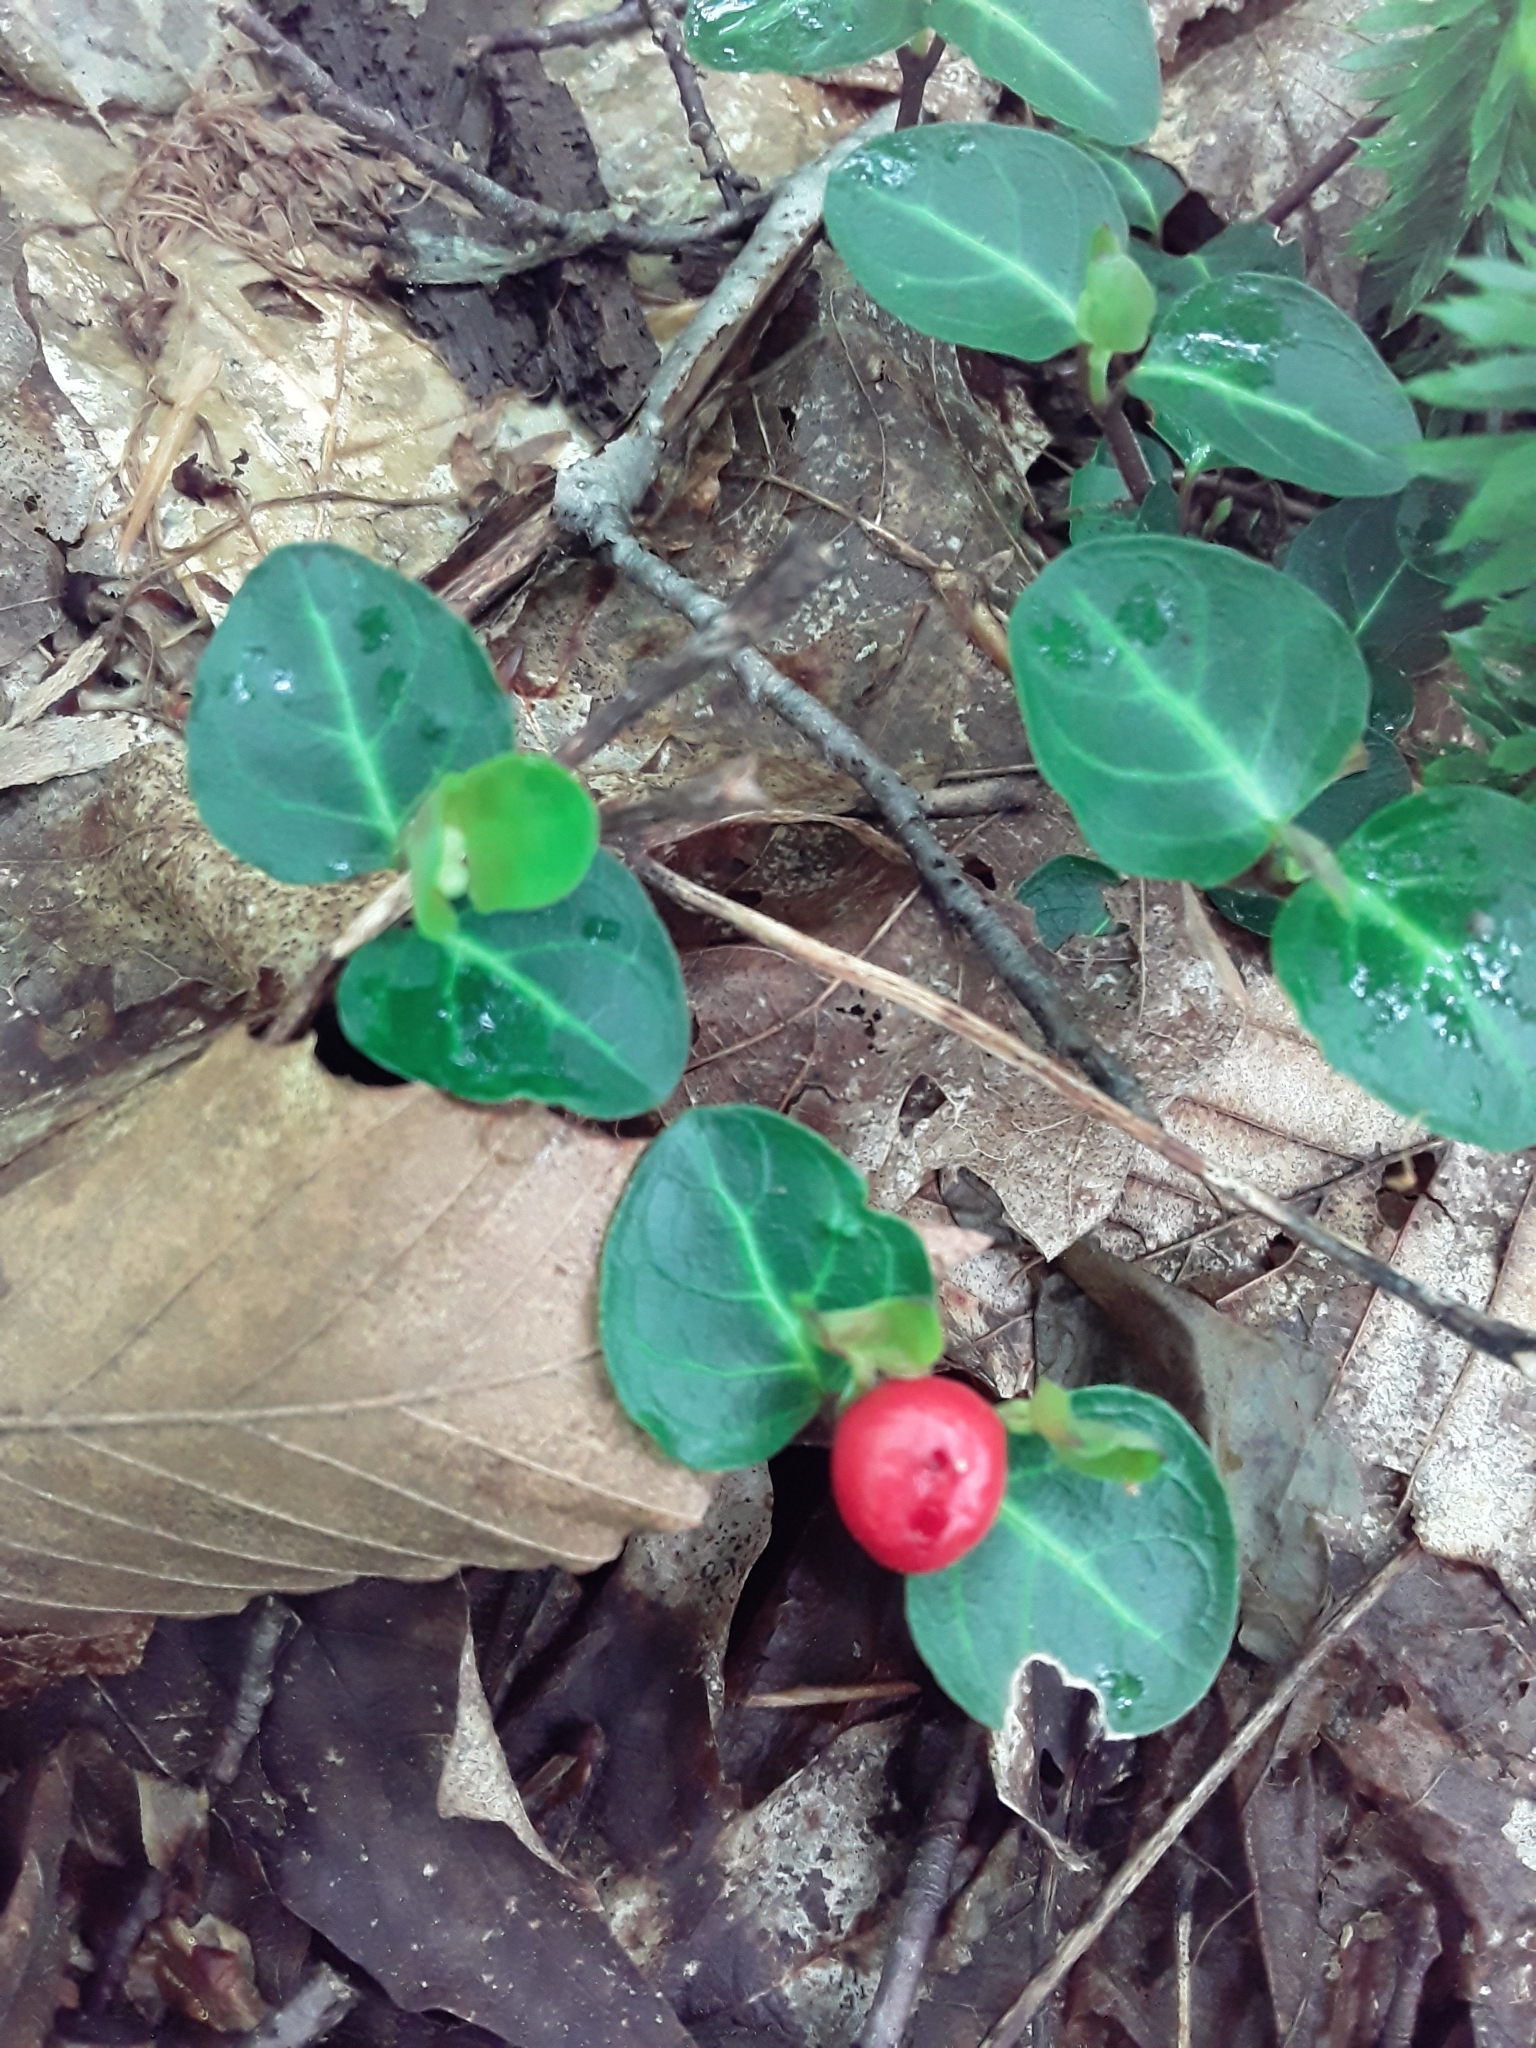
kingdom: Plantae
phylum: Tracheophyta
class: Magnoliopsida
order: Gentianales
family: Rubiaceae
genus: Mitchella
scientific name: Mitchella repens
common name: Partridge-berry
